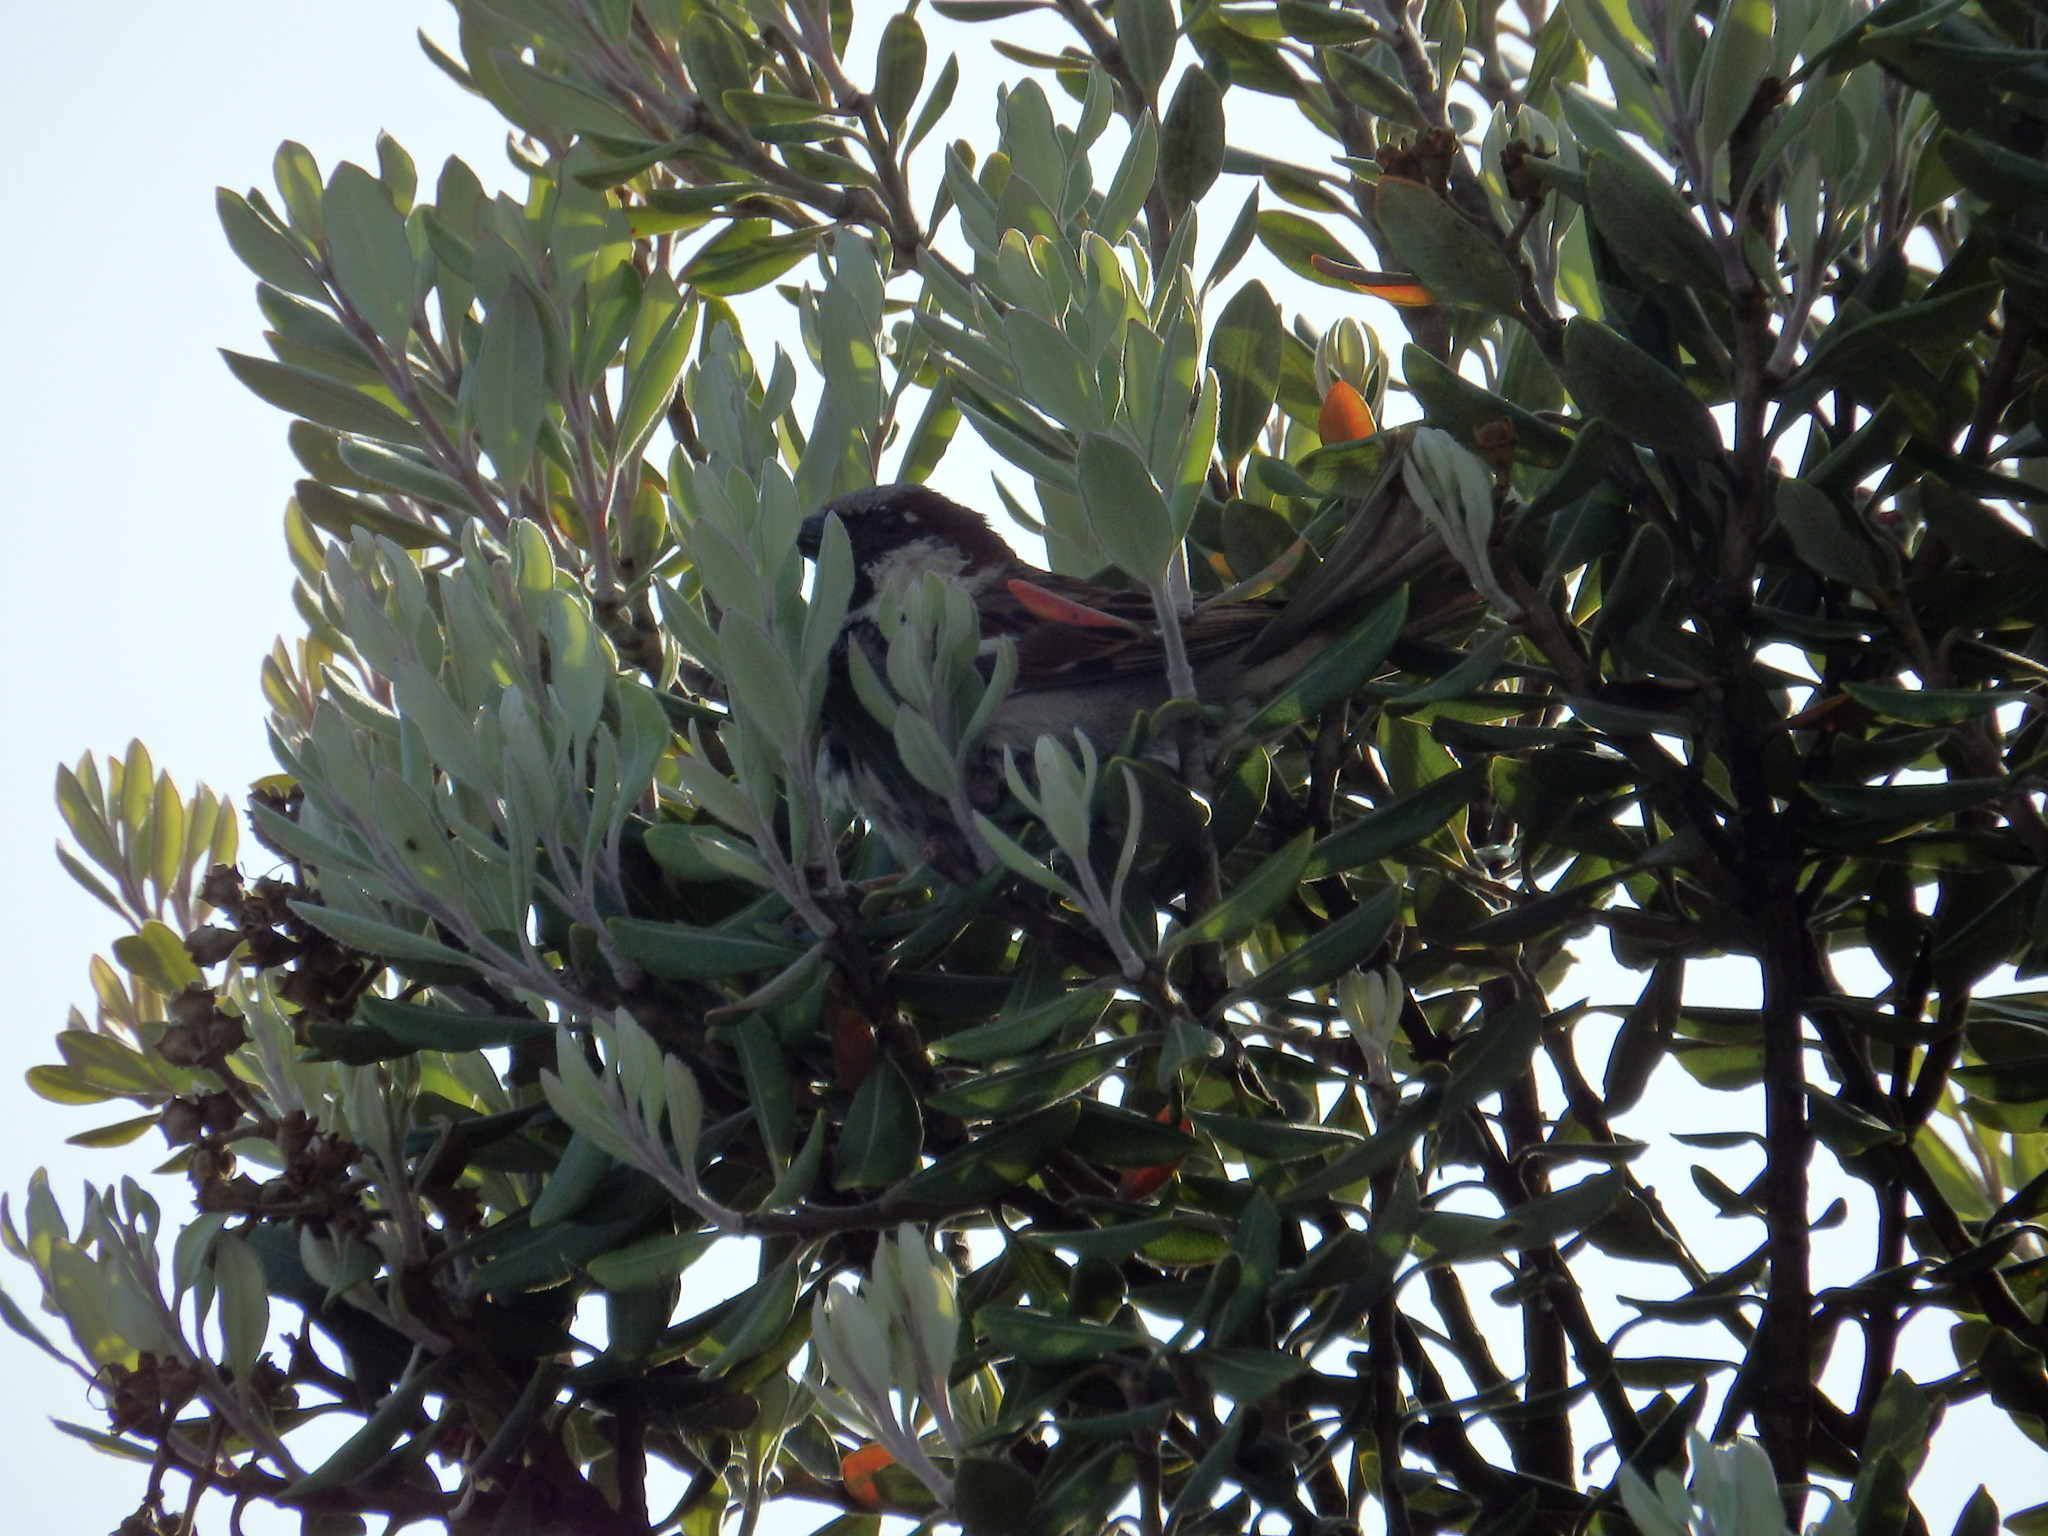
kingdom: Animalia
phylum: Chordata
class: Aves
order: Passeriformes
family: Passeridae
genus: Passer
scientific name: Passer domesticus
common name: House sparrow
